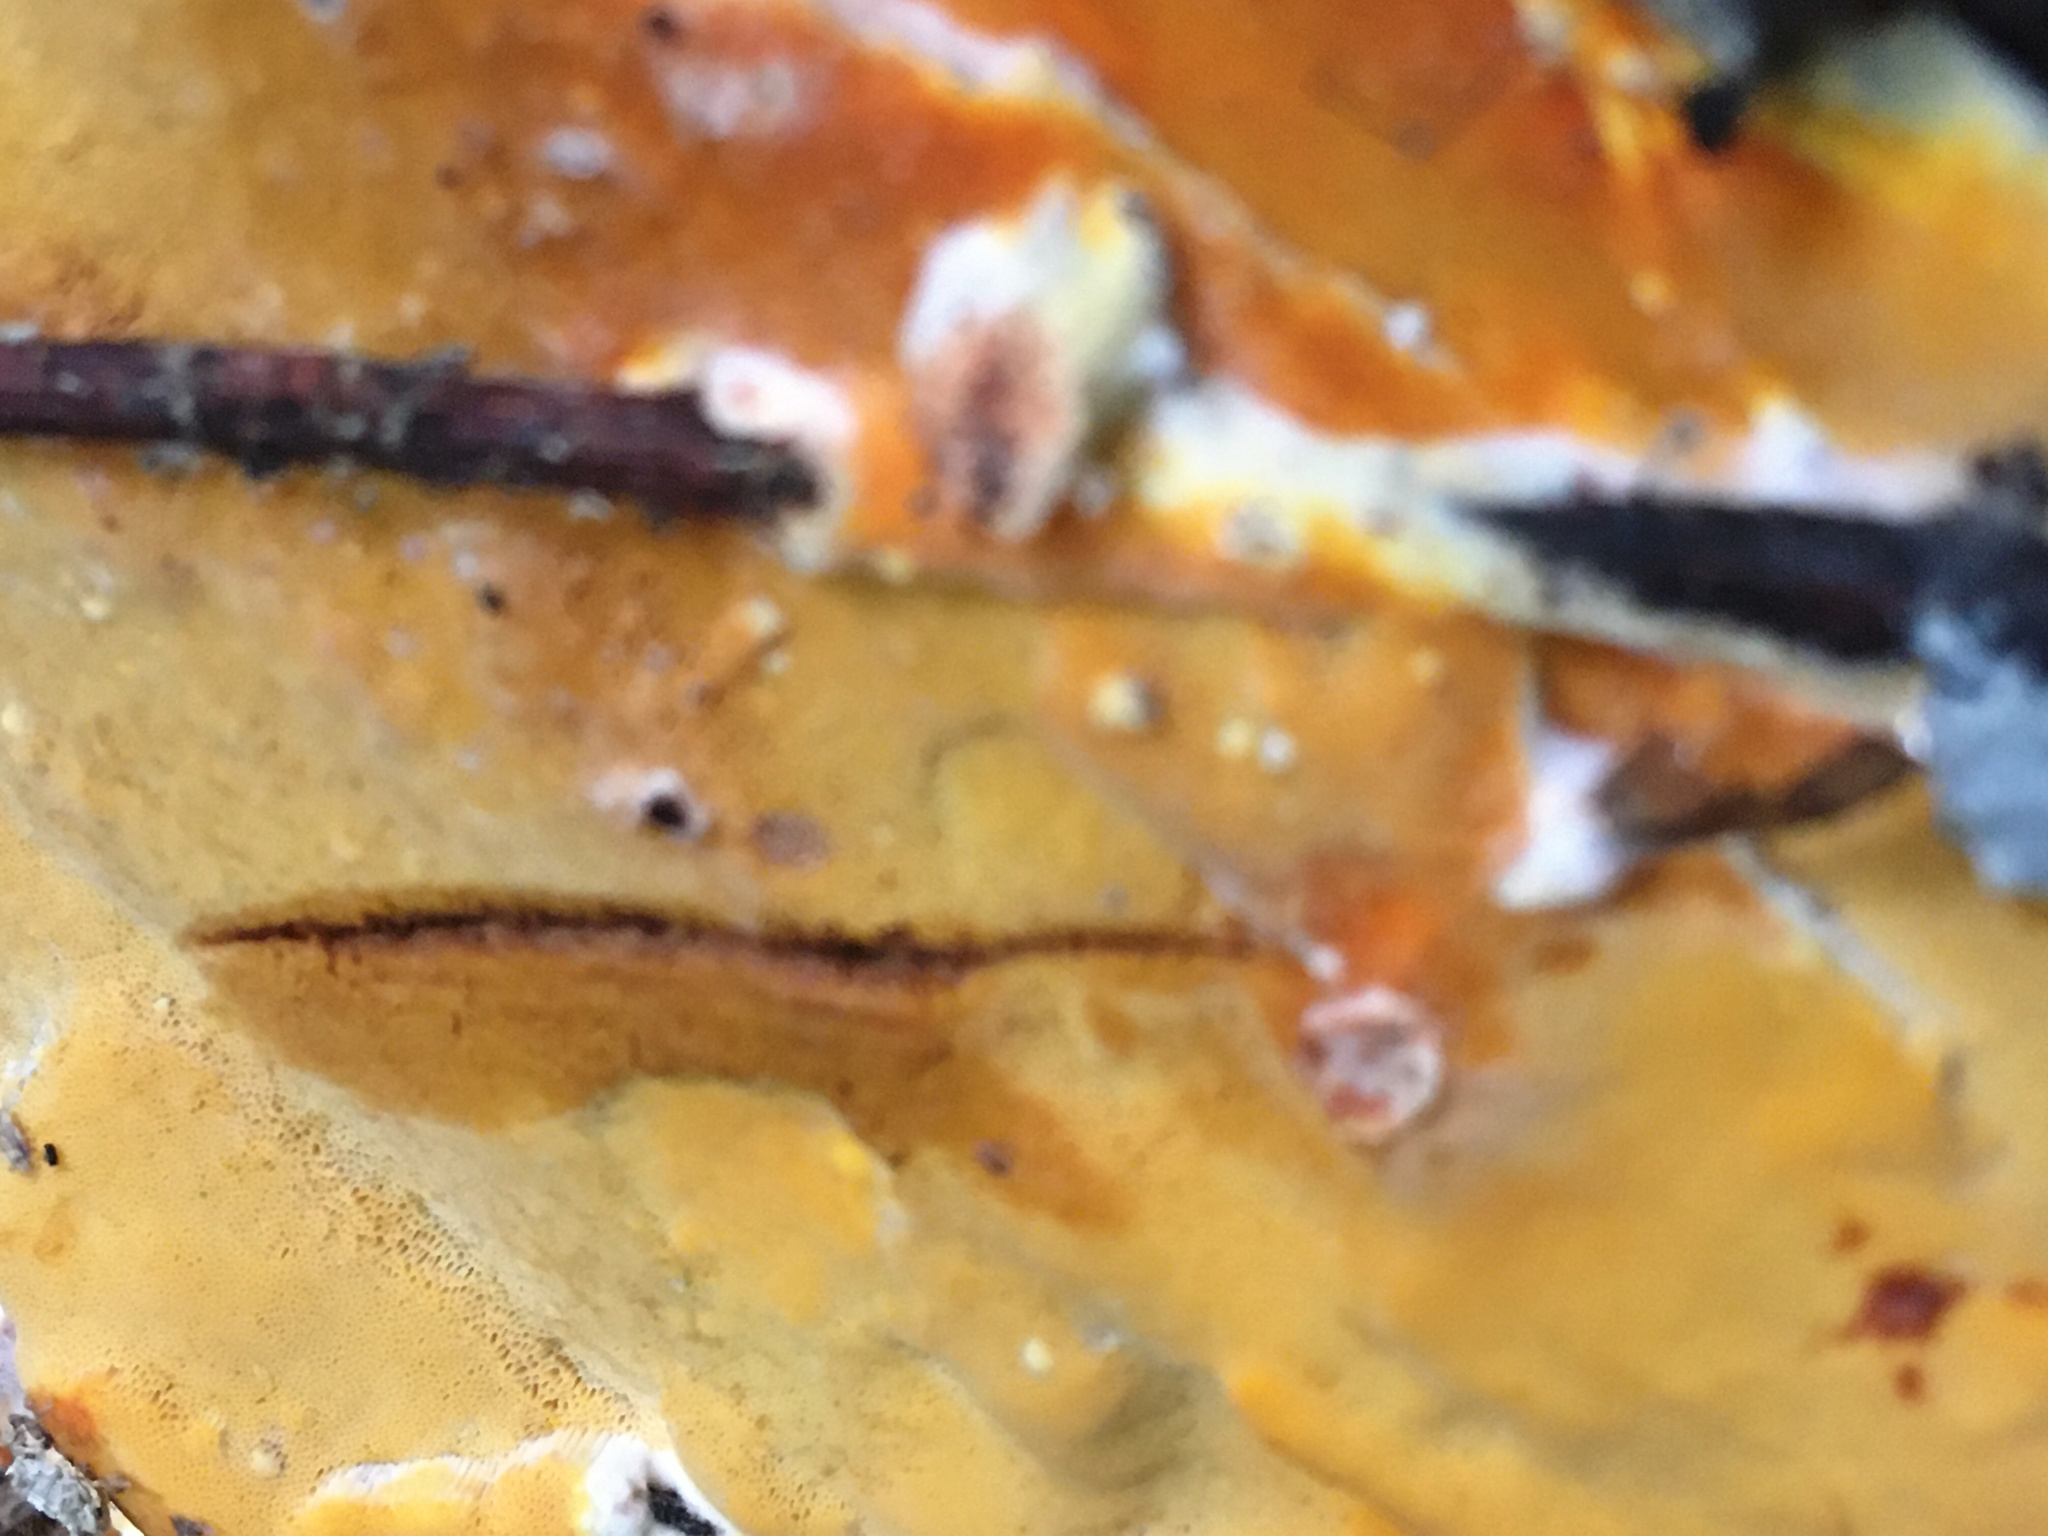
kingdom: Fungi
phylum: Basidiomycota
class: Agaricomycetes
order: Polyporales
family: Irpicaceae
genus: Ceriporia
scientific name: Ceriporia spissa
